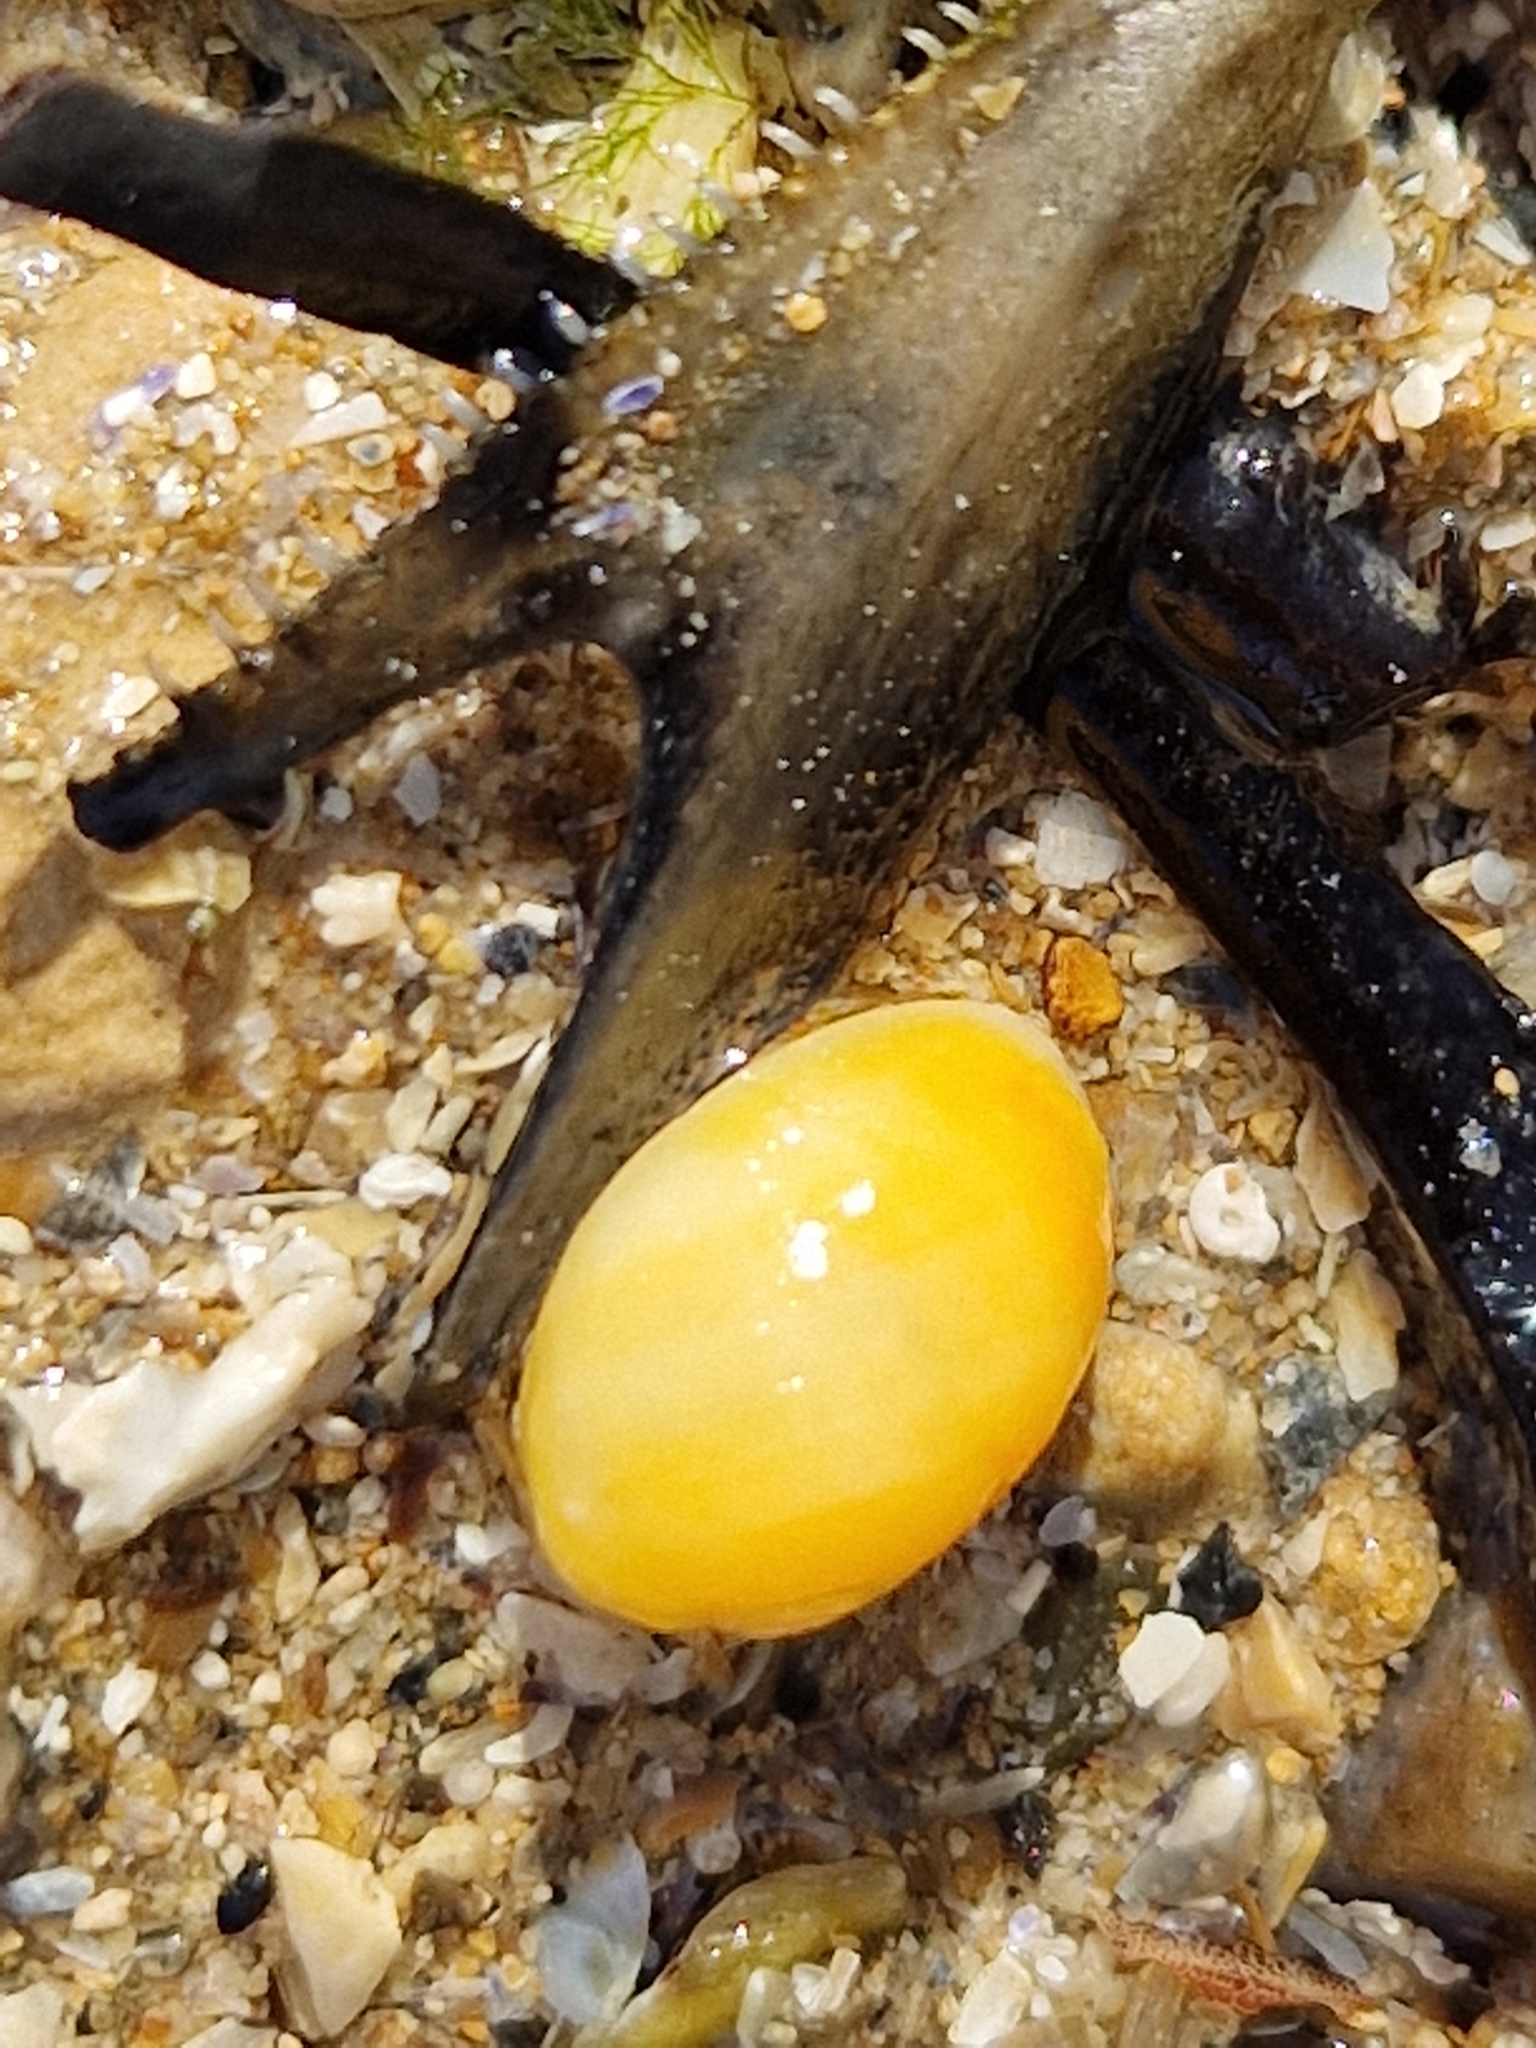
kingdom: Animalia
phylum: Mollusca
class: Gastropoda
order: Littorinimorpha
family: Littorinidae
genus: Littorina
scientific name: Littorina obtusata
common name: Flat periwinkle
